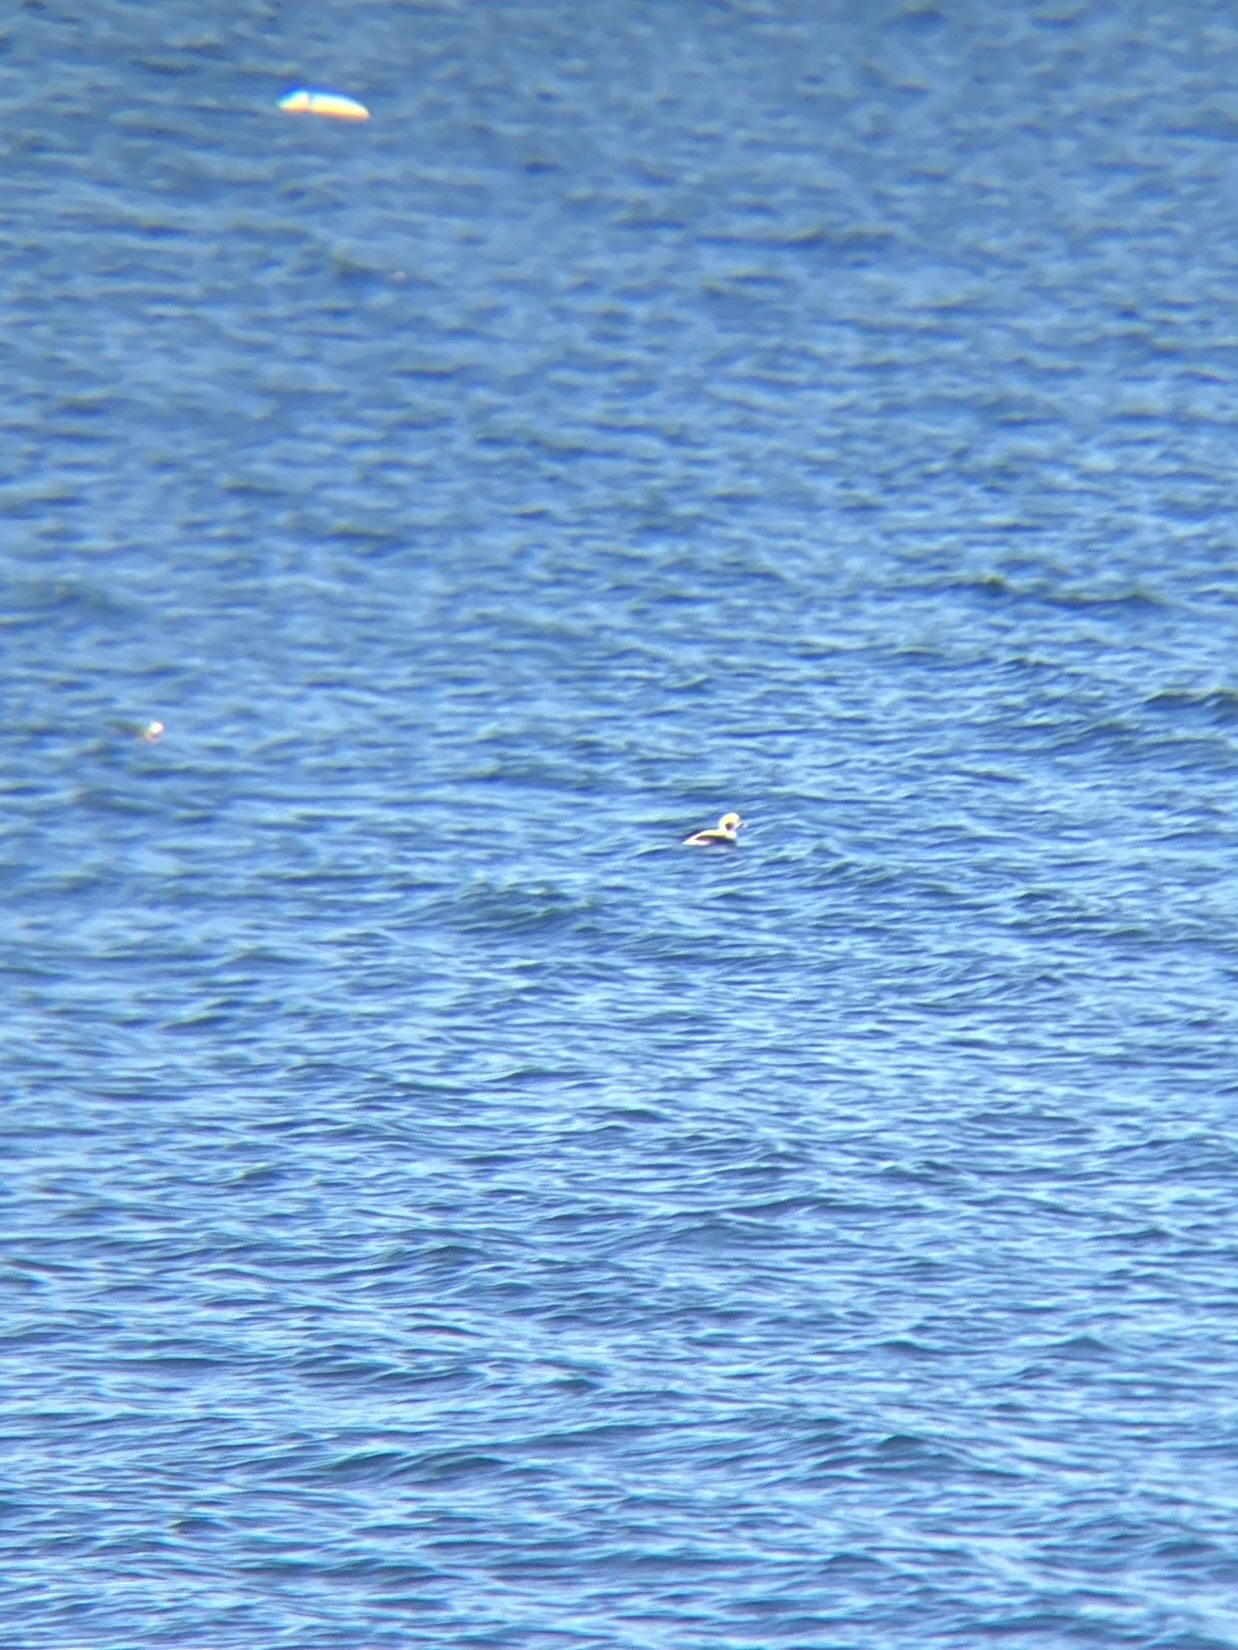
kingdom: Animalia
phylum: Chordata
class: Aves
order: Anseriformes
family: Anatidae
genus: Clangula
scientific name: Clangula hyemalis
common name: Long-tailed duck
